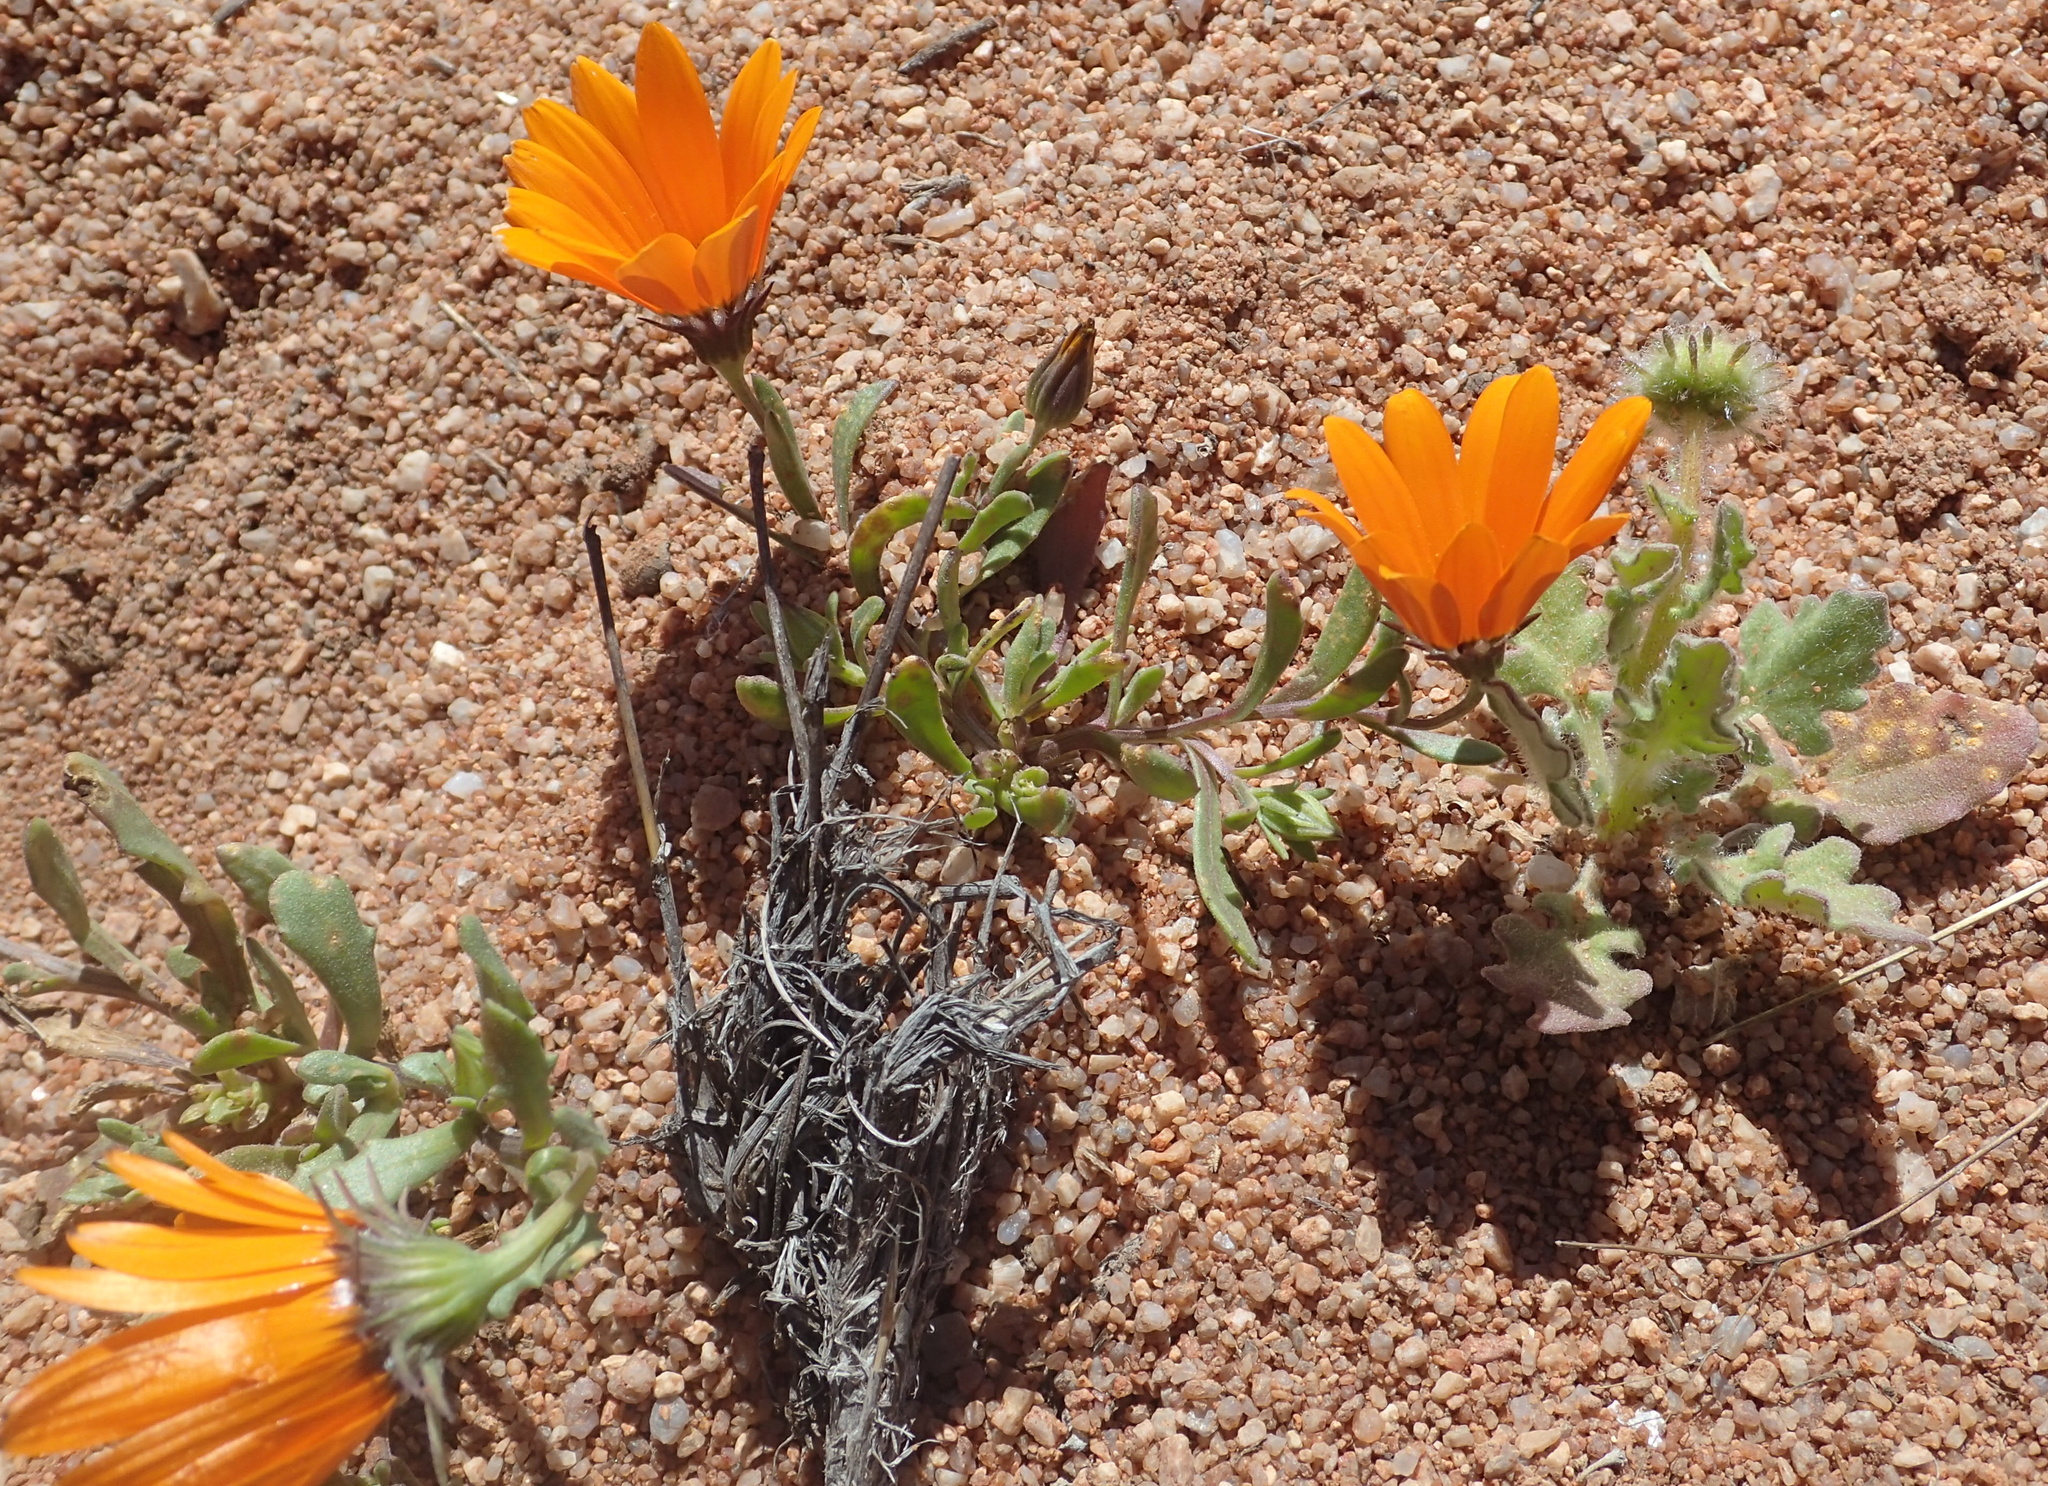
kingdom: Plantae
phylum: Tracheophyta
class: Magnoliopsida
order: Asterales
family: Asteraceae
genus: Dimorphotheca
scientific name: Dimorphotheca sinuata
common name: Glandular cape marigold
